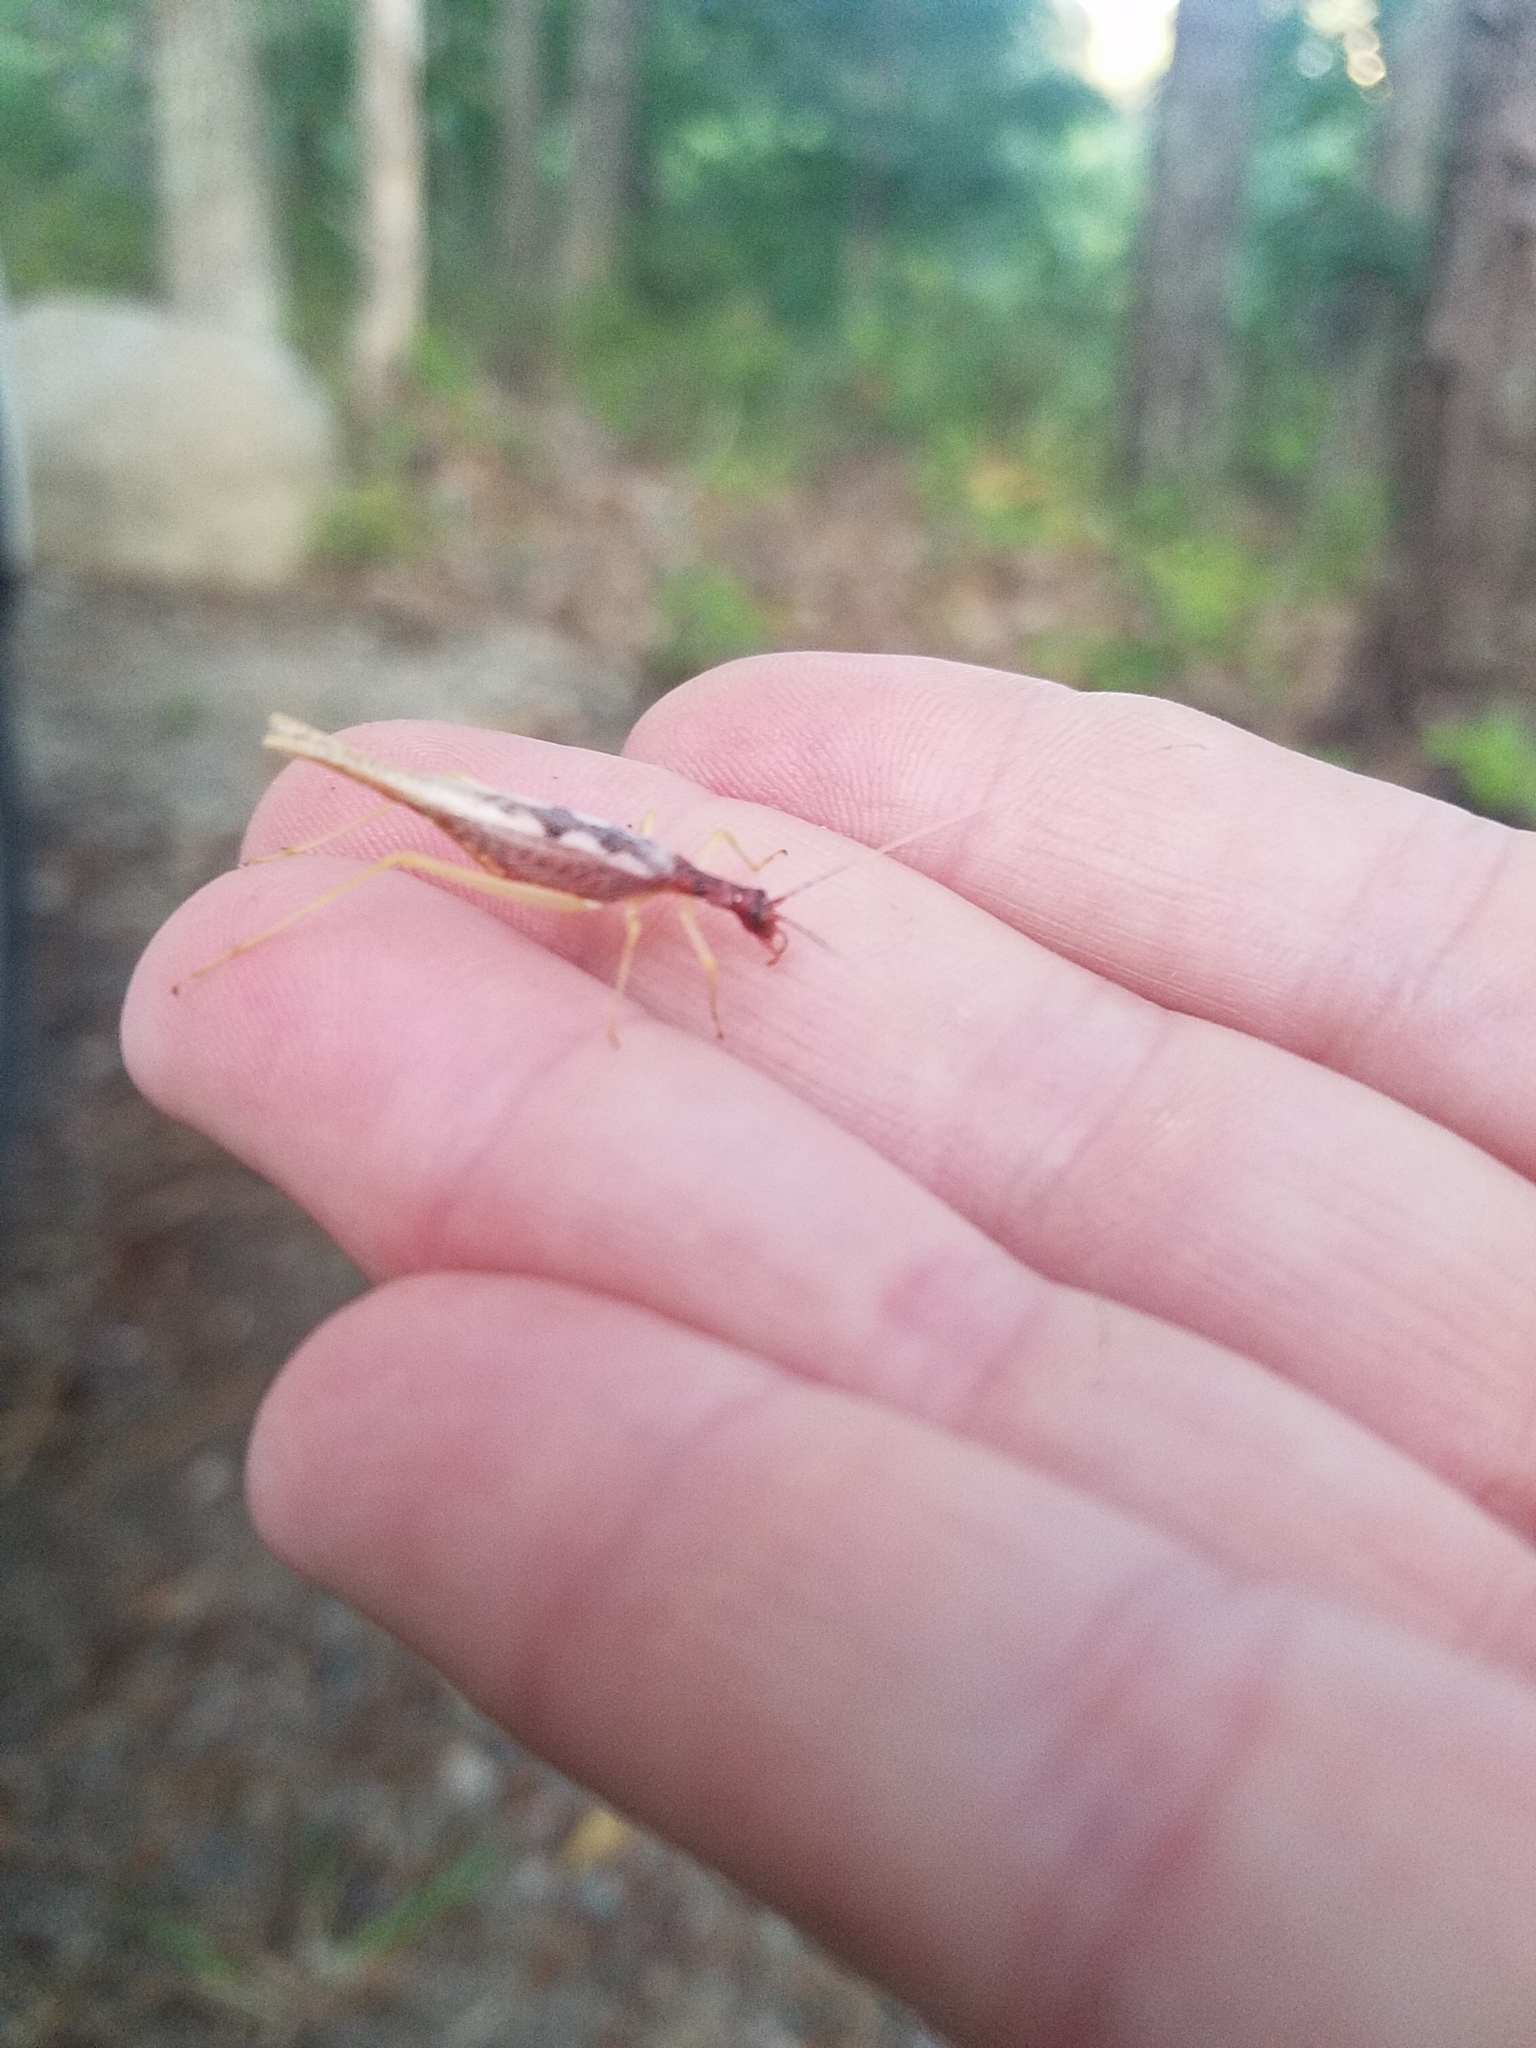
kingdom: Animalia
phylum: Arthropoda
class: Insecta
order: Orthoptera
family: Gryllidae
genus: Neoxabea
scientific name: Neoxabea bipunctata
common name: Two-spotted tree cricket
